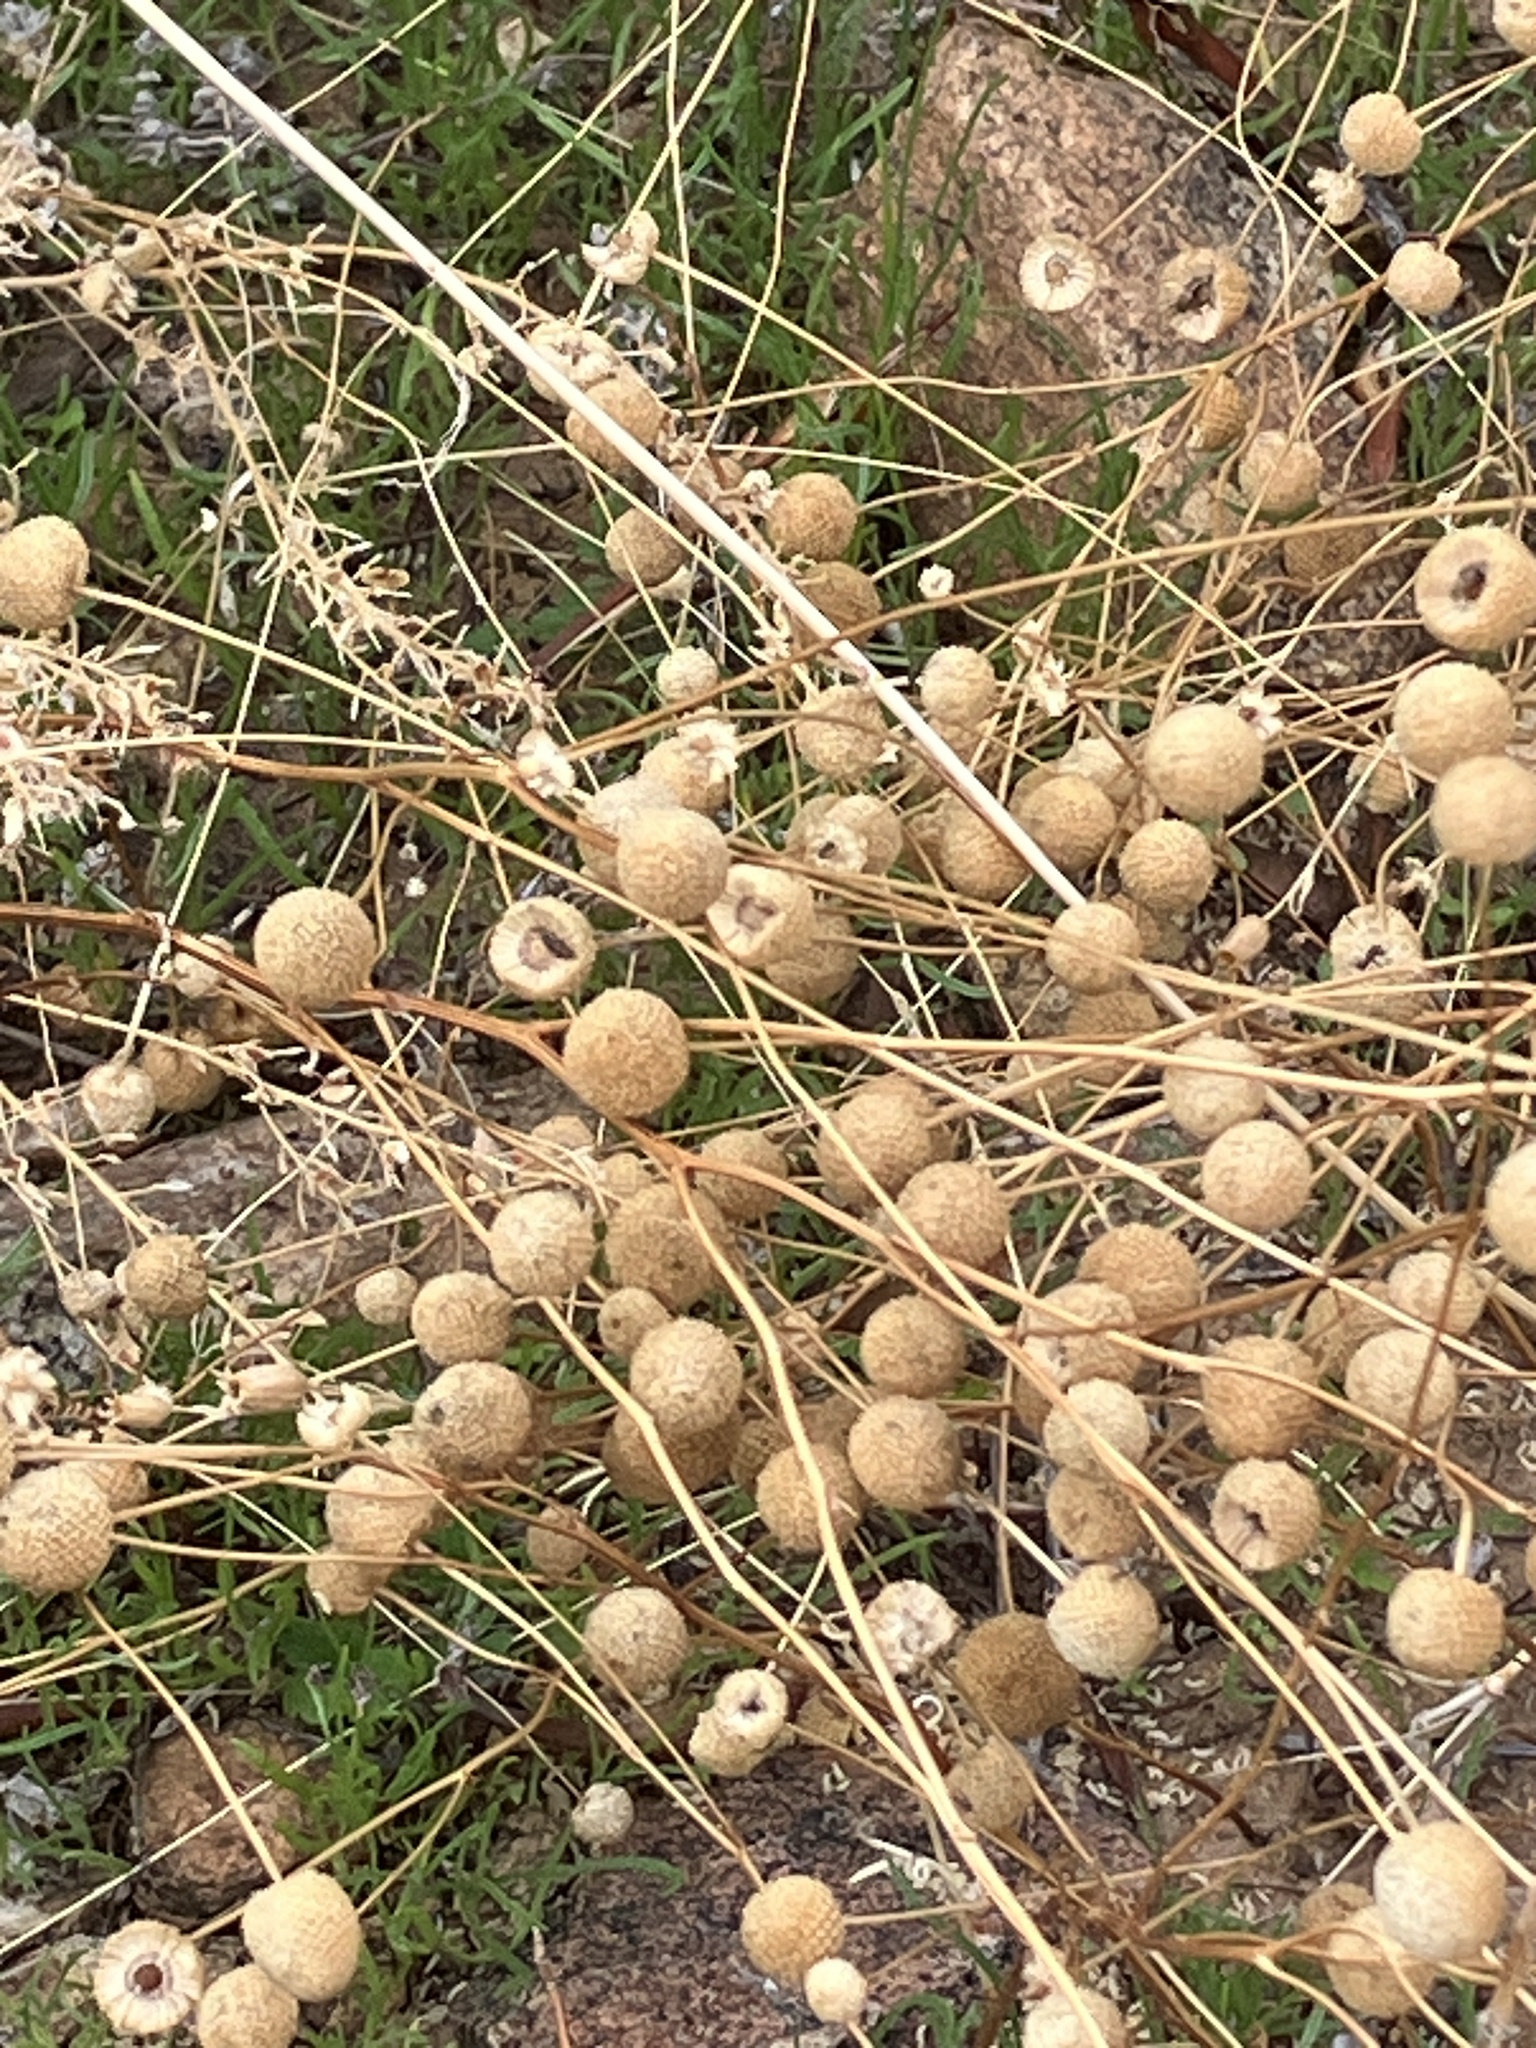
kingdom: Plantae
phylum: Tracheophyta
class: Magnoliopsida
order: Asterales
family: Asteraceae
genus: Oncosiphon
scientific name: Oncosiphon pilulifer
